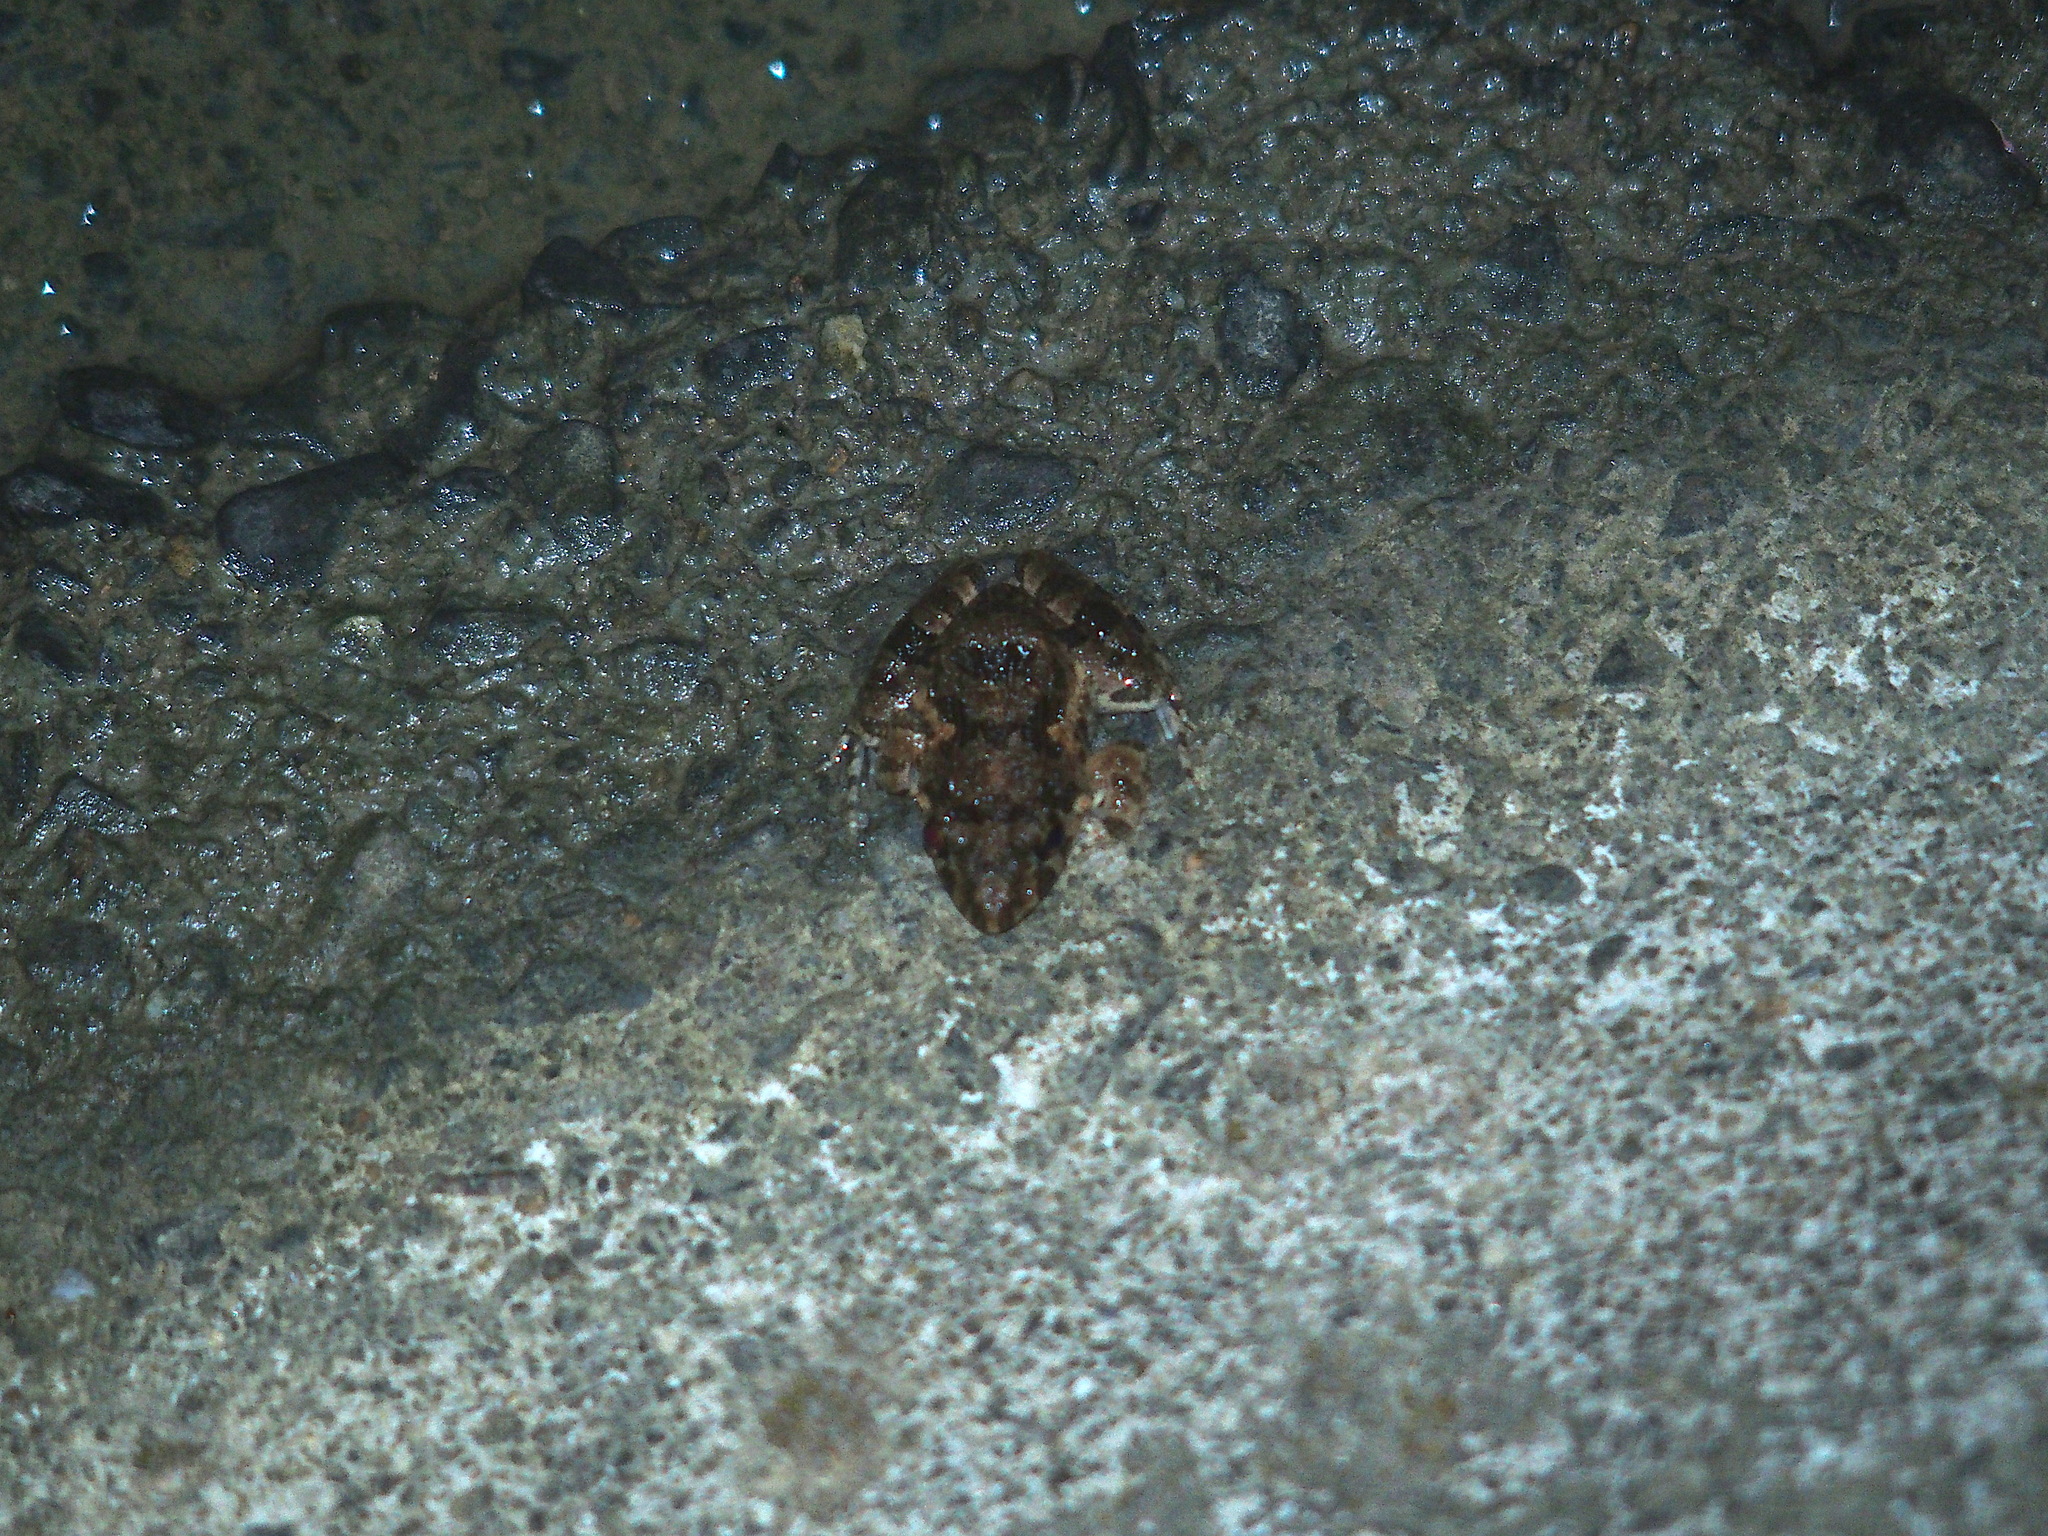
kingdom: Animalia
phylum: Chordata
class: Amphibia
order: Anura
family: Dicroglossidae
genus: Fejervarya
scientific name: Fejervarya limnocharis
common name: Asian grass frog/common pond frog/field frog/grass frog/indian rice frog
